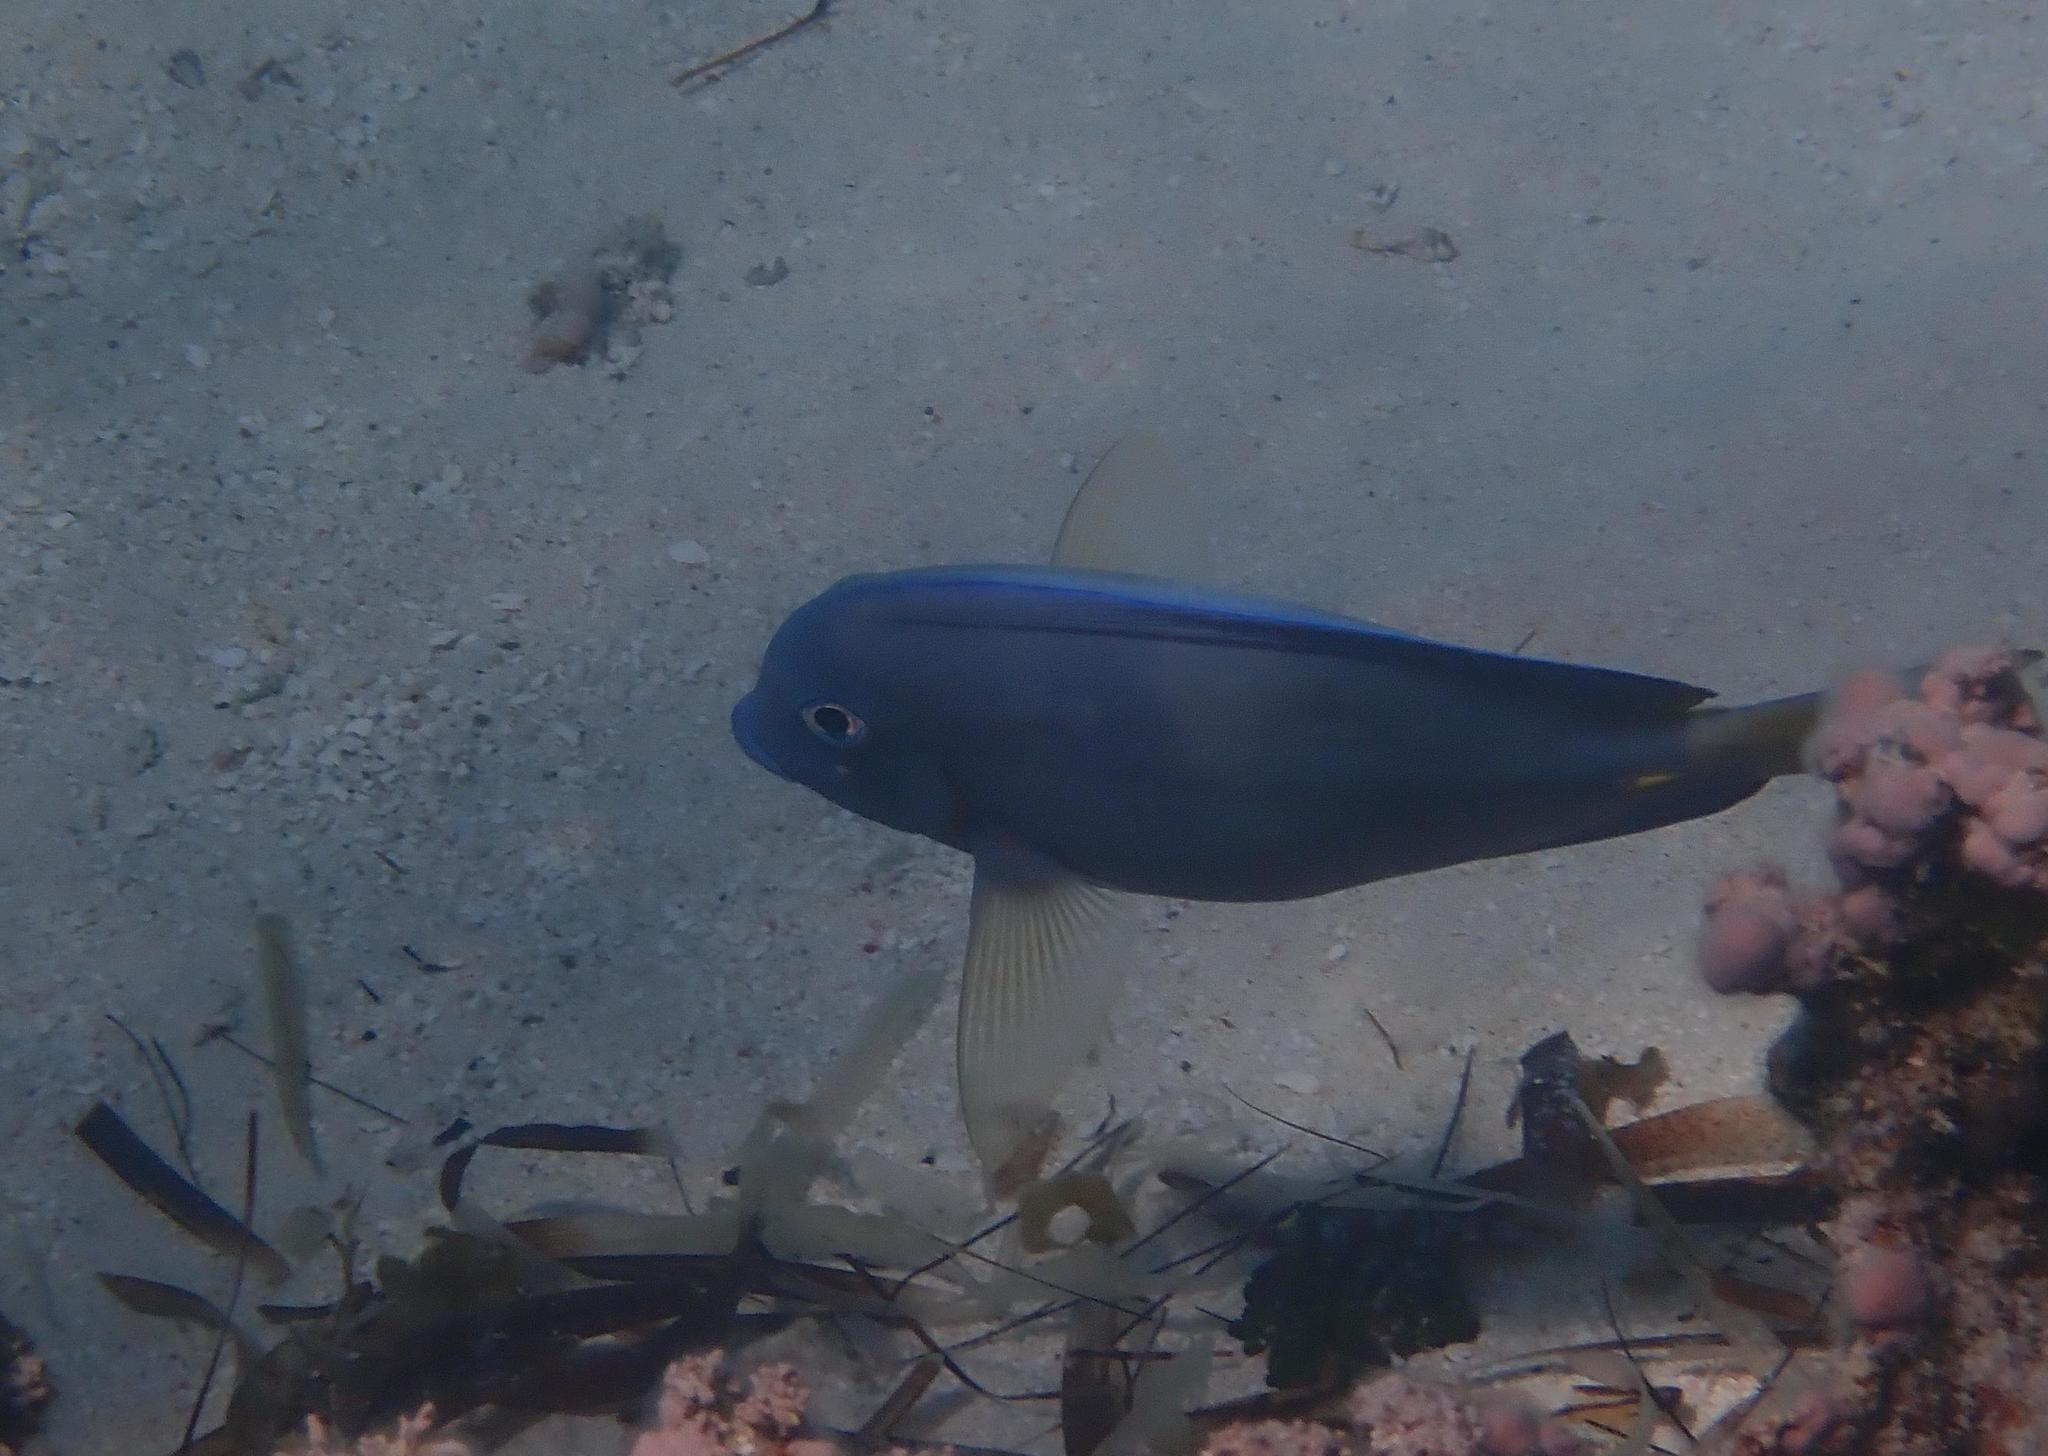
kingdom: Animalia
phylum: Chordata
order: Perciformes
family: Acanthuridae
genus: Acanthurus
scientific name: Acanthurus coeruleus
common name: Blue tang
